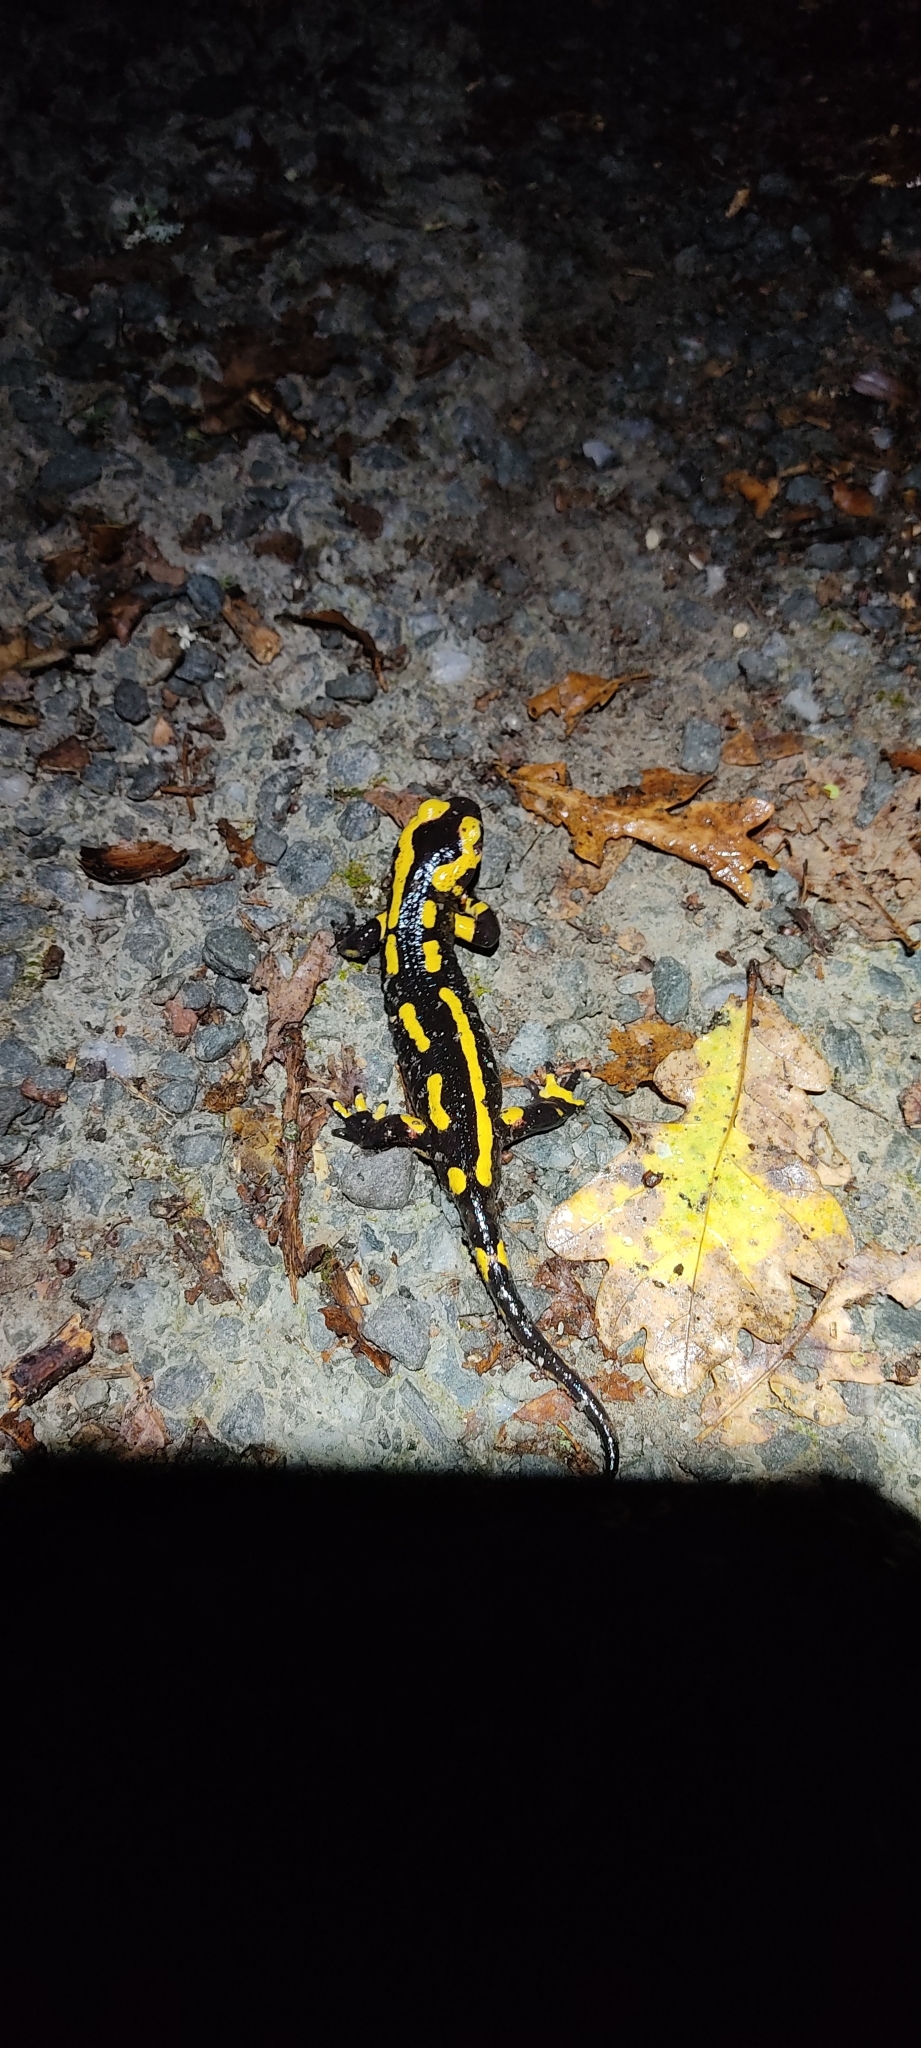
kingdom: Animalia
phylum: Chordata
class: Amphibia
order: Caudata
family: Salamandridae
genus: Salamandra
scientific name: Salamandra salamandra
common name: Fire salamander
